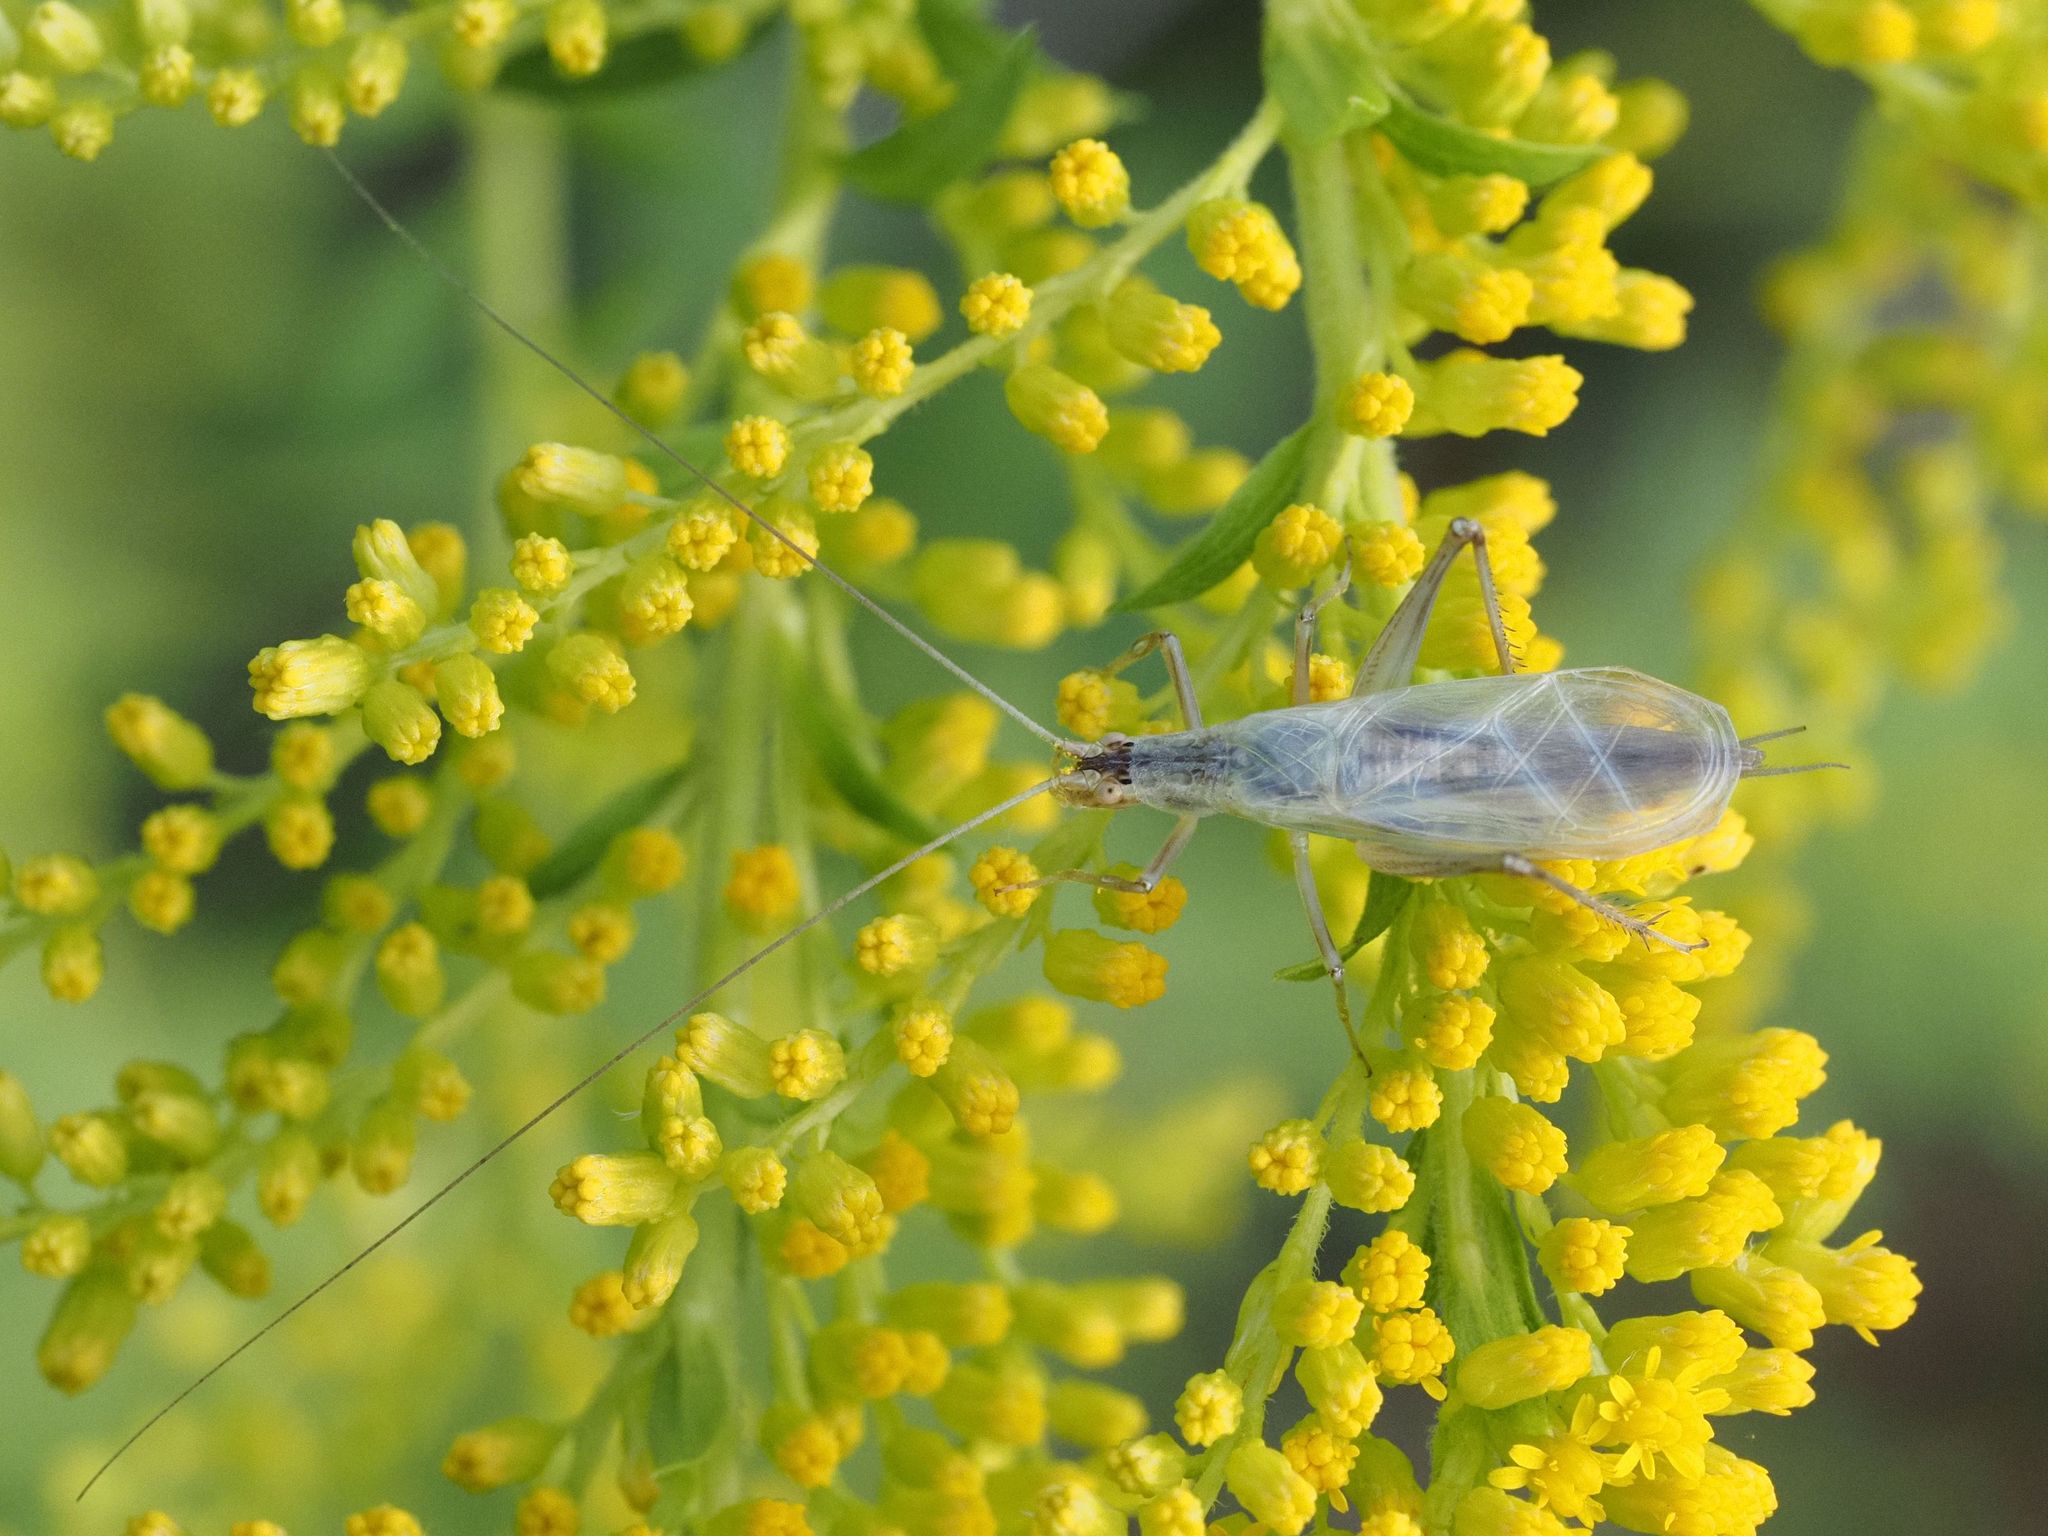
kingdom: Animalia
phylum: Arthropoda
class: Insecta
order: Orthoptera
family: Gryllidae
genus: Oecanthus
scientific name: Oecanthus pellucens
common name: Tree-cricket
